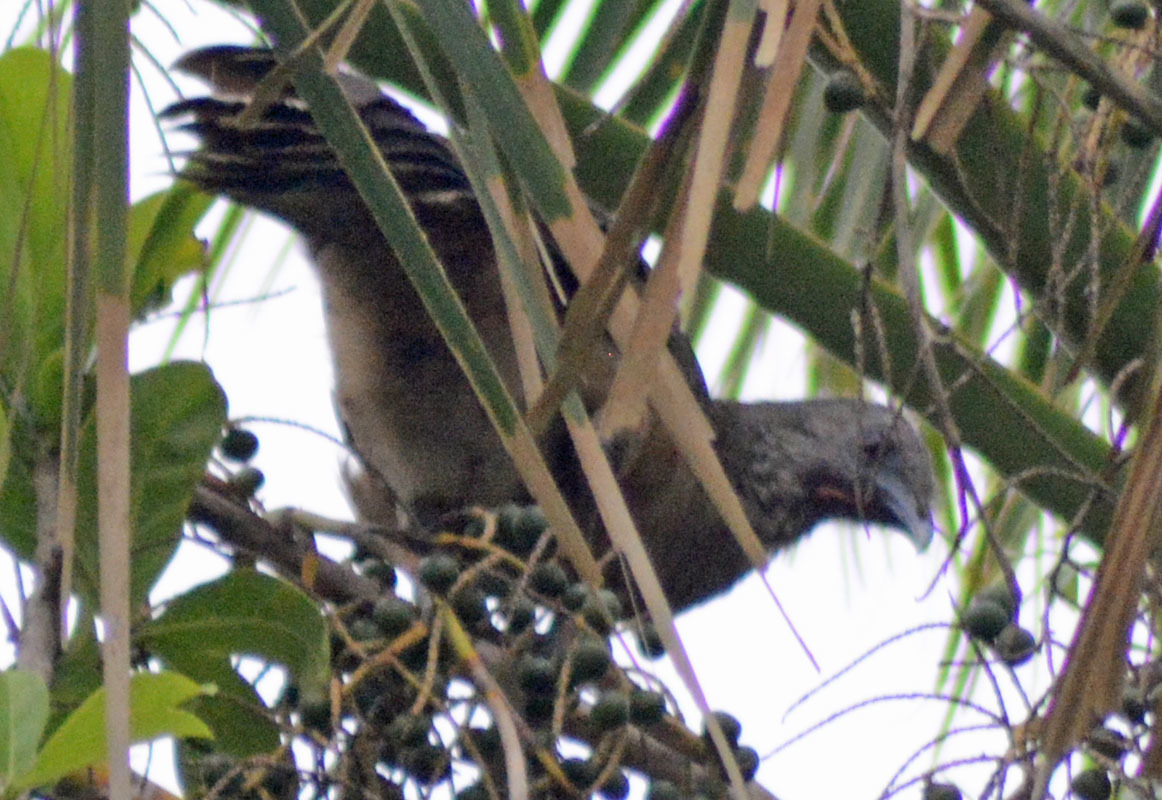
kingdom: Animalia
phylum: Chordata
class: Aves
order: Galliformes
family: Cracidae
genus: Ortalis
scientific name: Ortalis vetula
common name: Plain chachalaca
